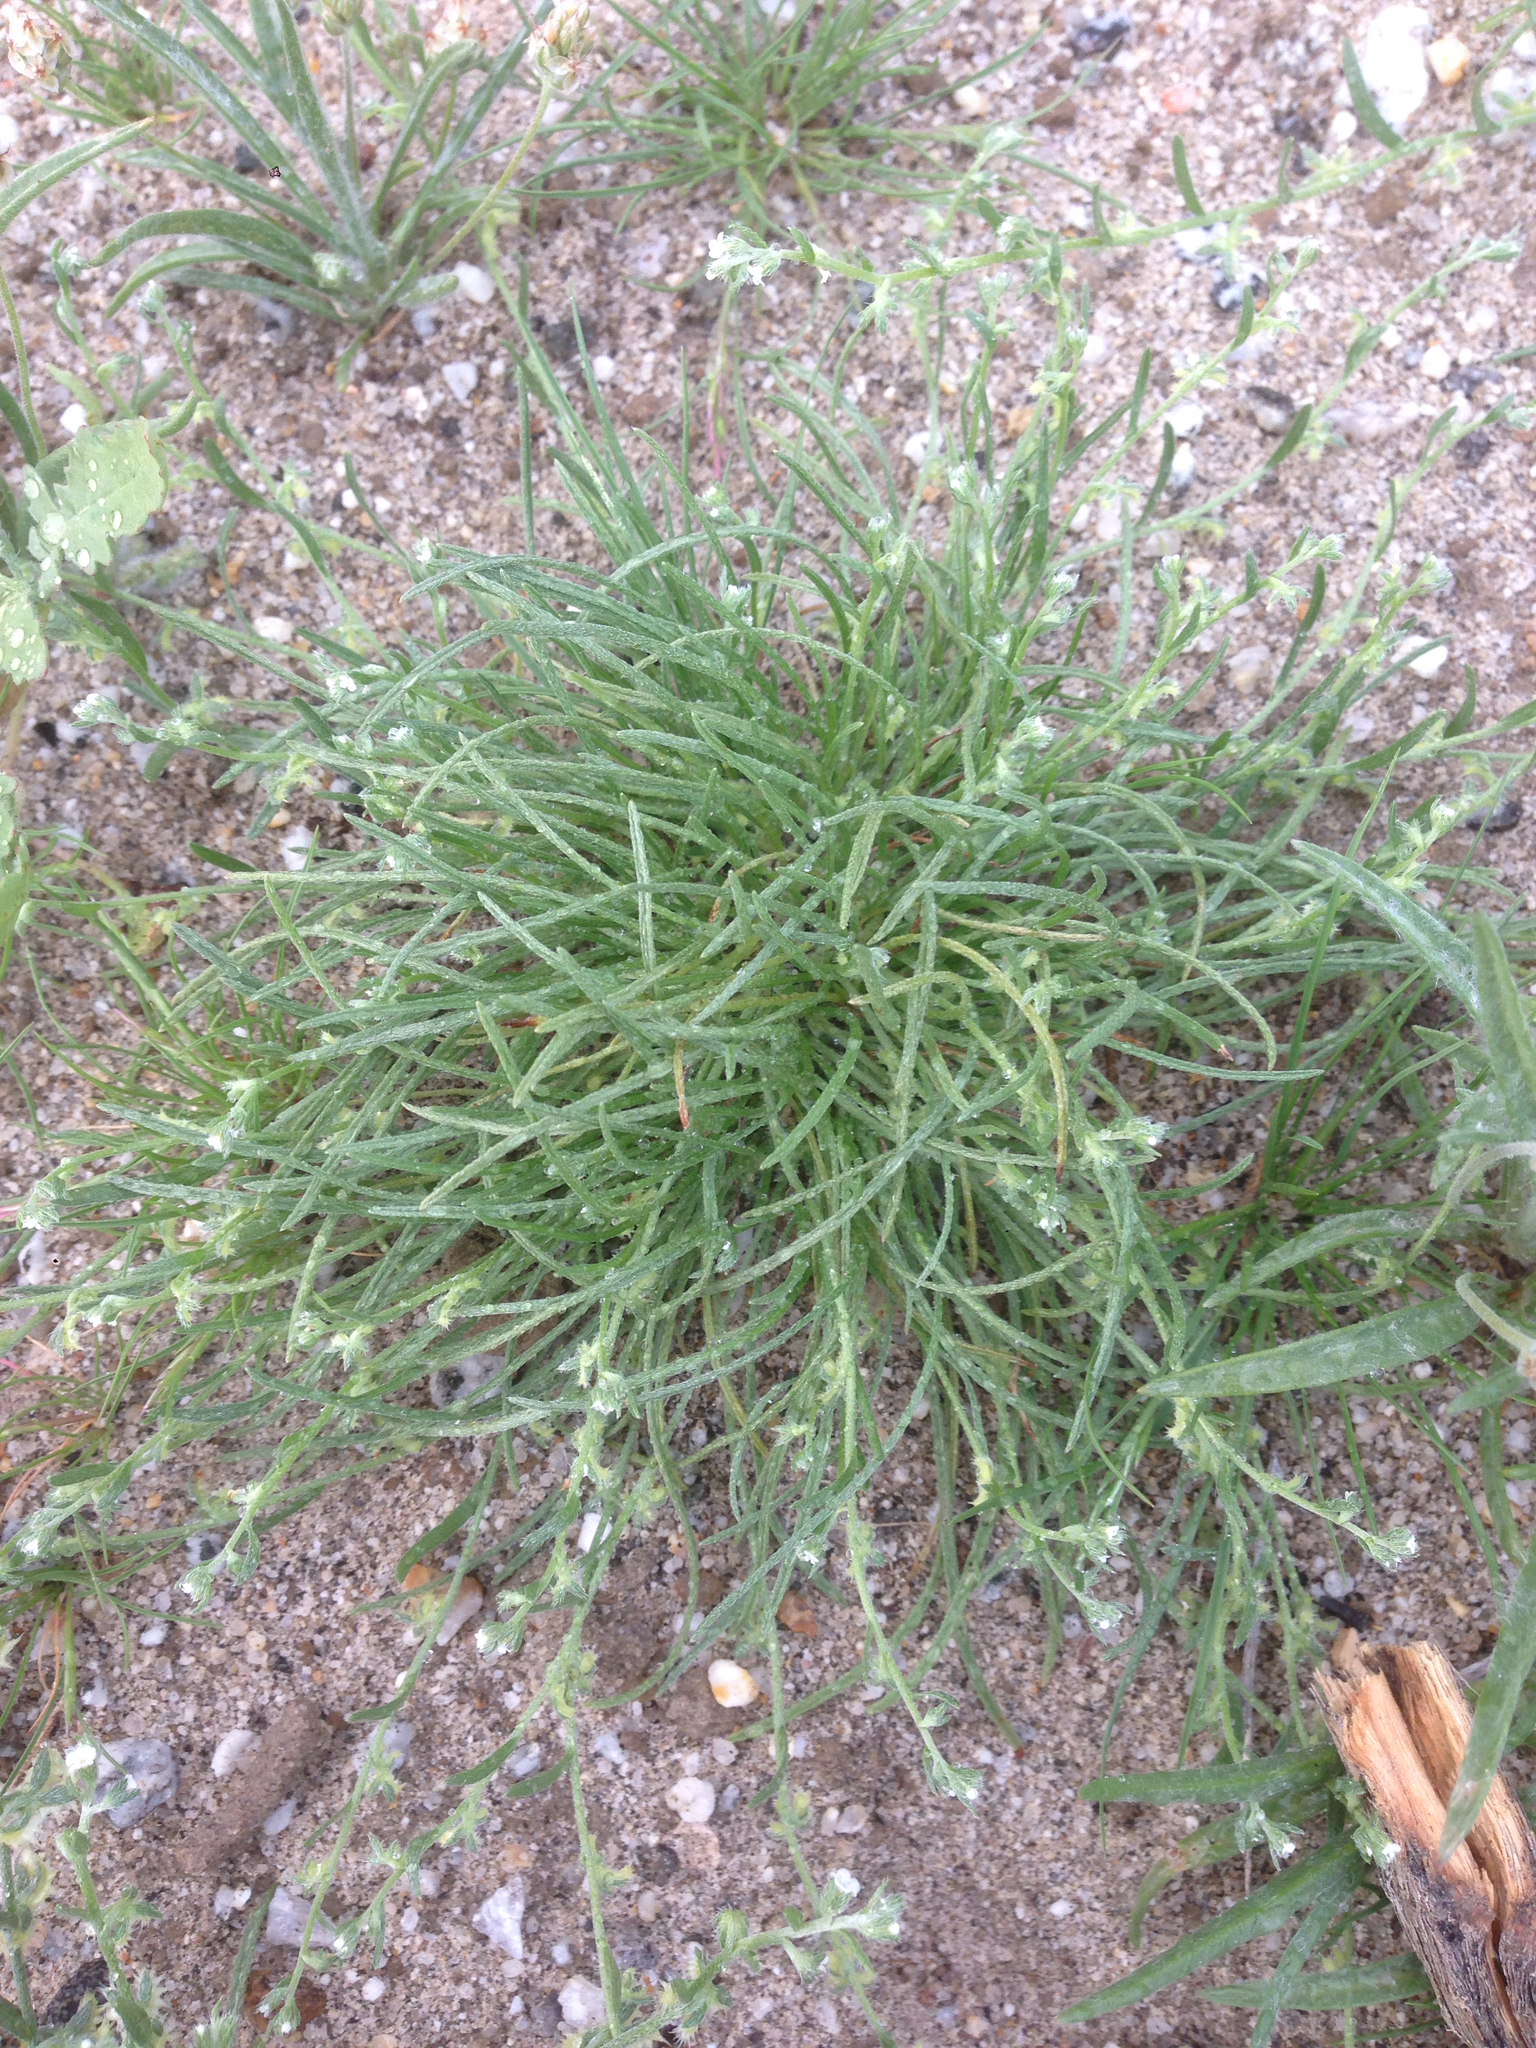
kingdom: Plantae
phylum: Tracheophyta
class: Magnoliopsida
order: Boraginales
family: Boraginaceae
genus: Pectocarya
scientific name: Pectocarya heterocarpa
